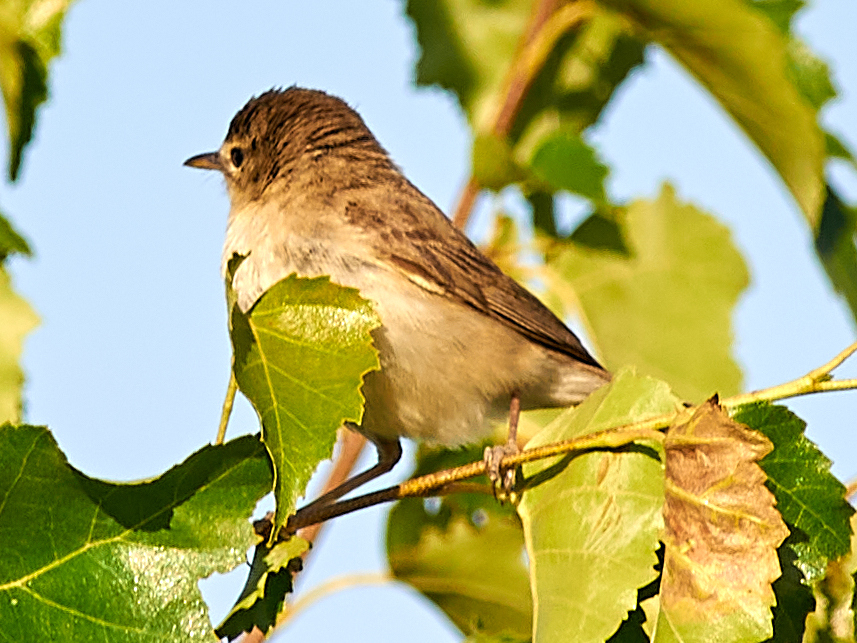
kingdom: Animalia
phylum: Chordata
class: Aves
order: Passeriformes
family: Acrocephalidae
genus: Iduna
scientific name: Iduna caligata
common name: Booted warbler
